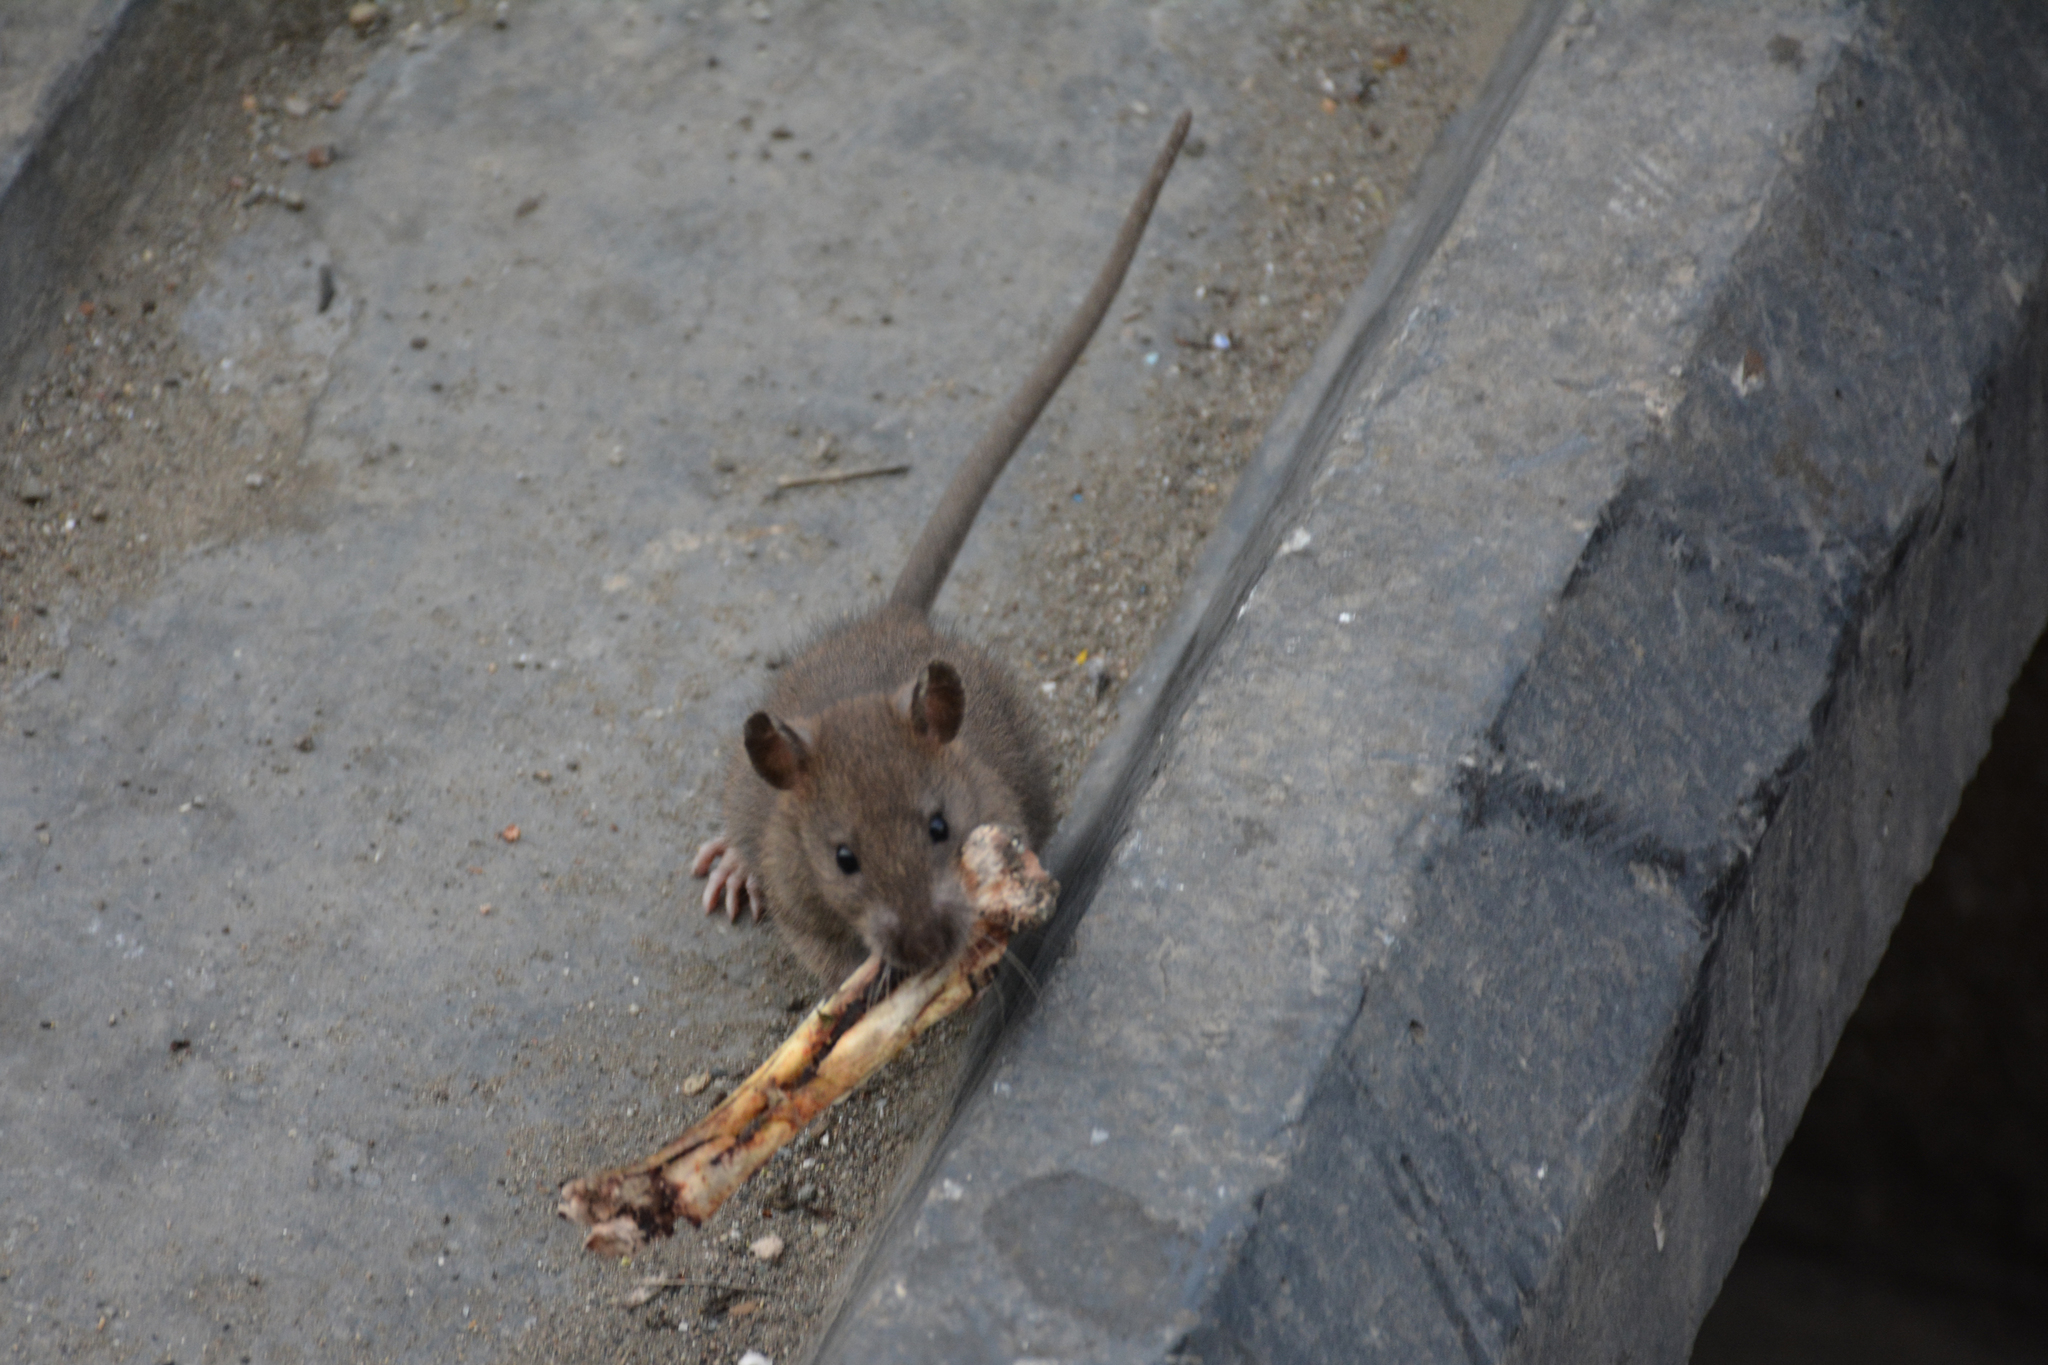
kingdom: Animalia
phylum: Chordata
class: Mammalia
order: Rodentia
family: Muridae
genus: Rattus
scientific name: Rattus norvegicus
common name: Brown rat
